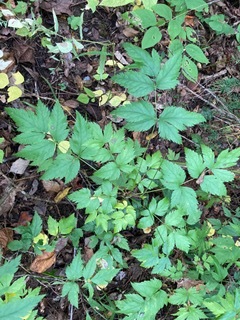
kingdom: Plantae
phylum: Tracheophyta
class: Magnoliopsida
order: Ranunculales
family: Ranunculaceae
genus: Xanthorhiza
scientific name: Xanthorhiza simplicissima
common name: Yellowroot
